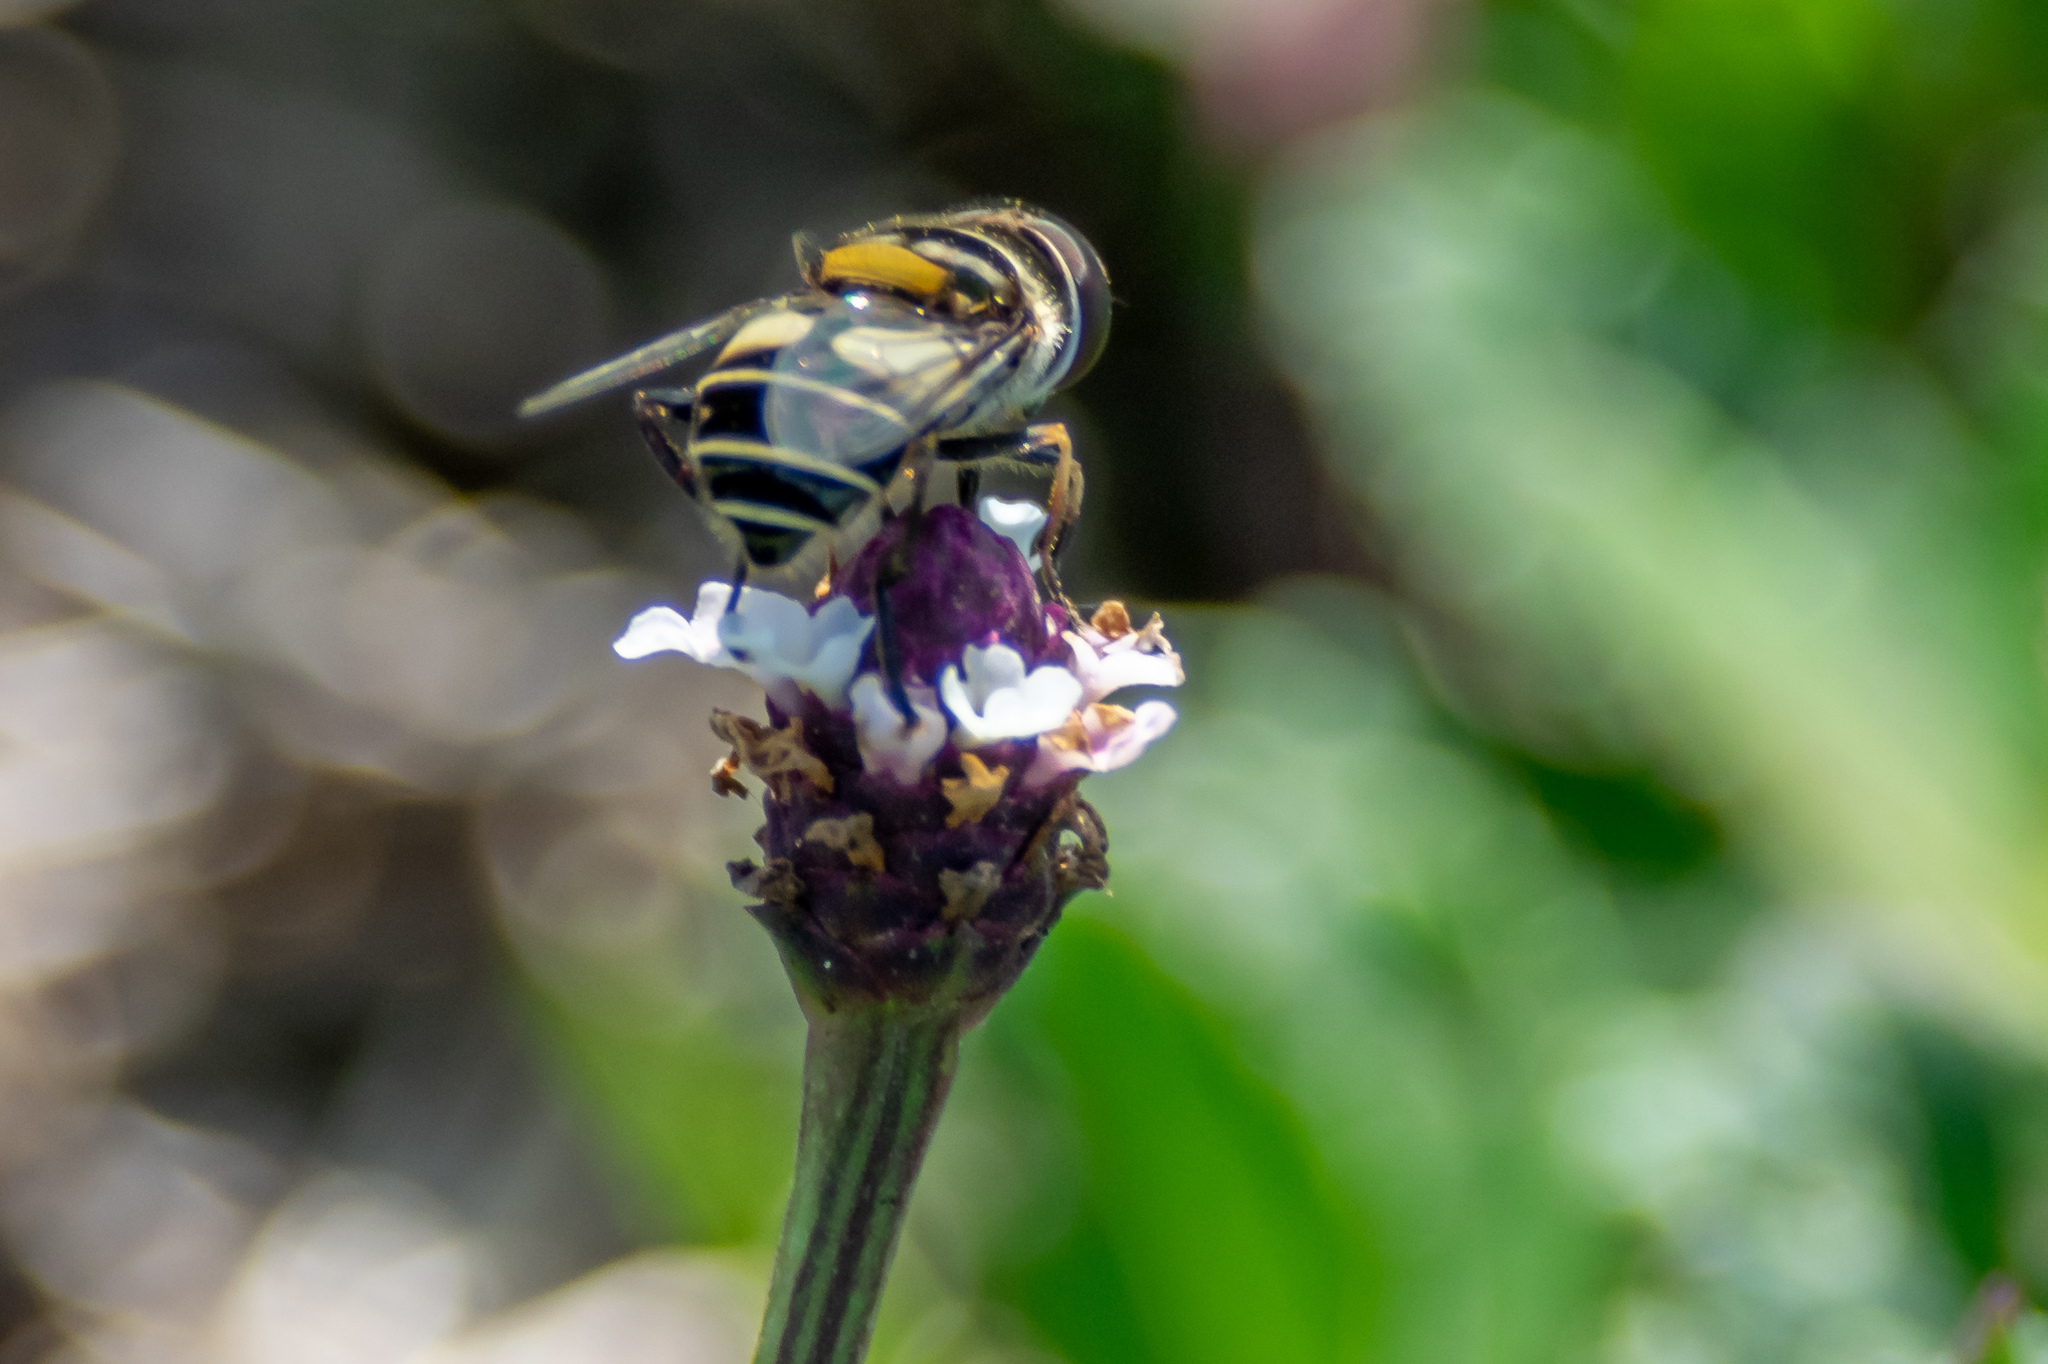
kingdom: Plantae
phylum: Tracheophyta
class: Magnoliopsida
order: Lamiales
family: Verbenaceae
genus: Phyla
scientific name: Phyla nodiflora
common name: Frogfruit
